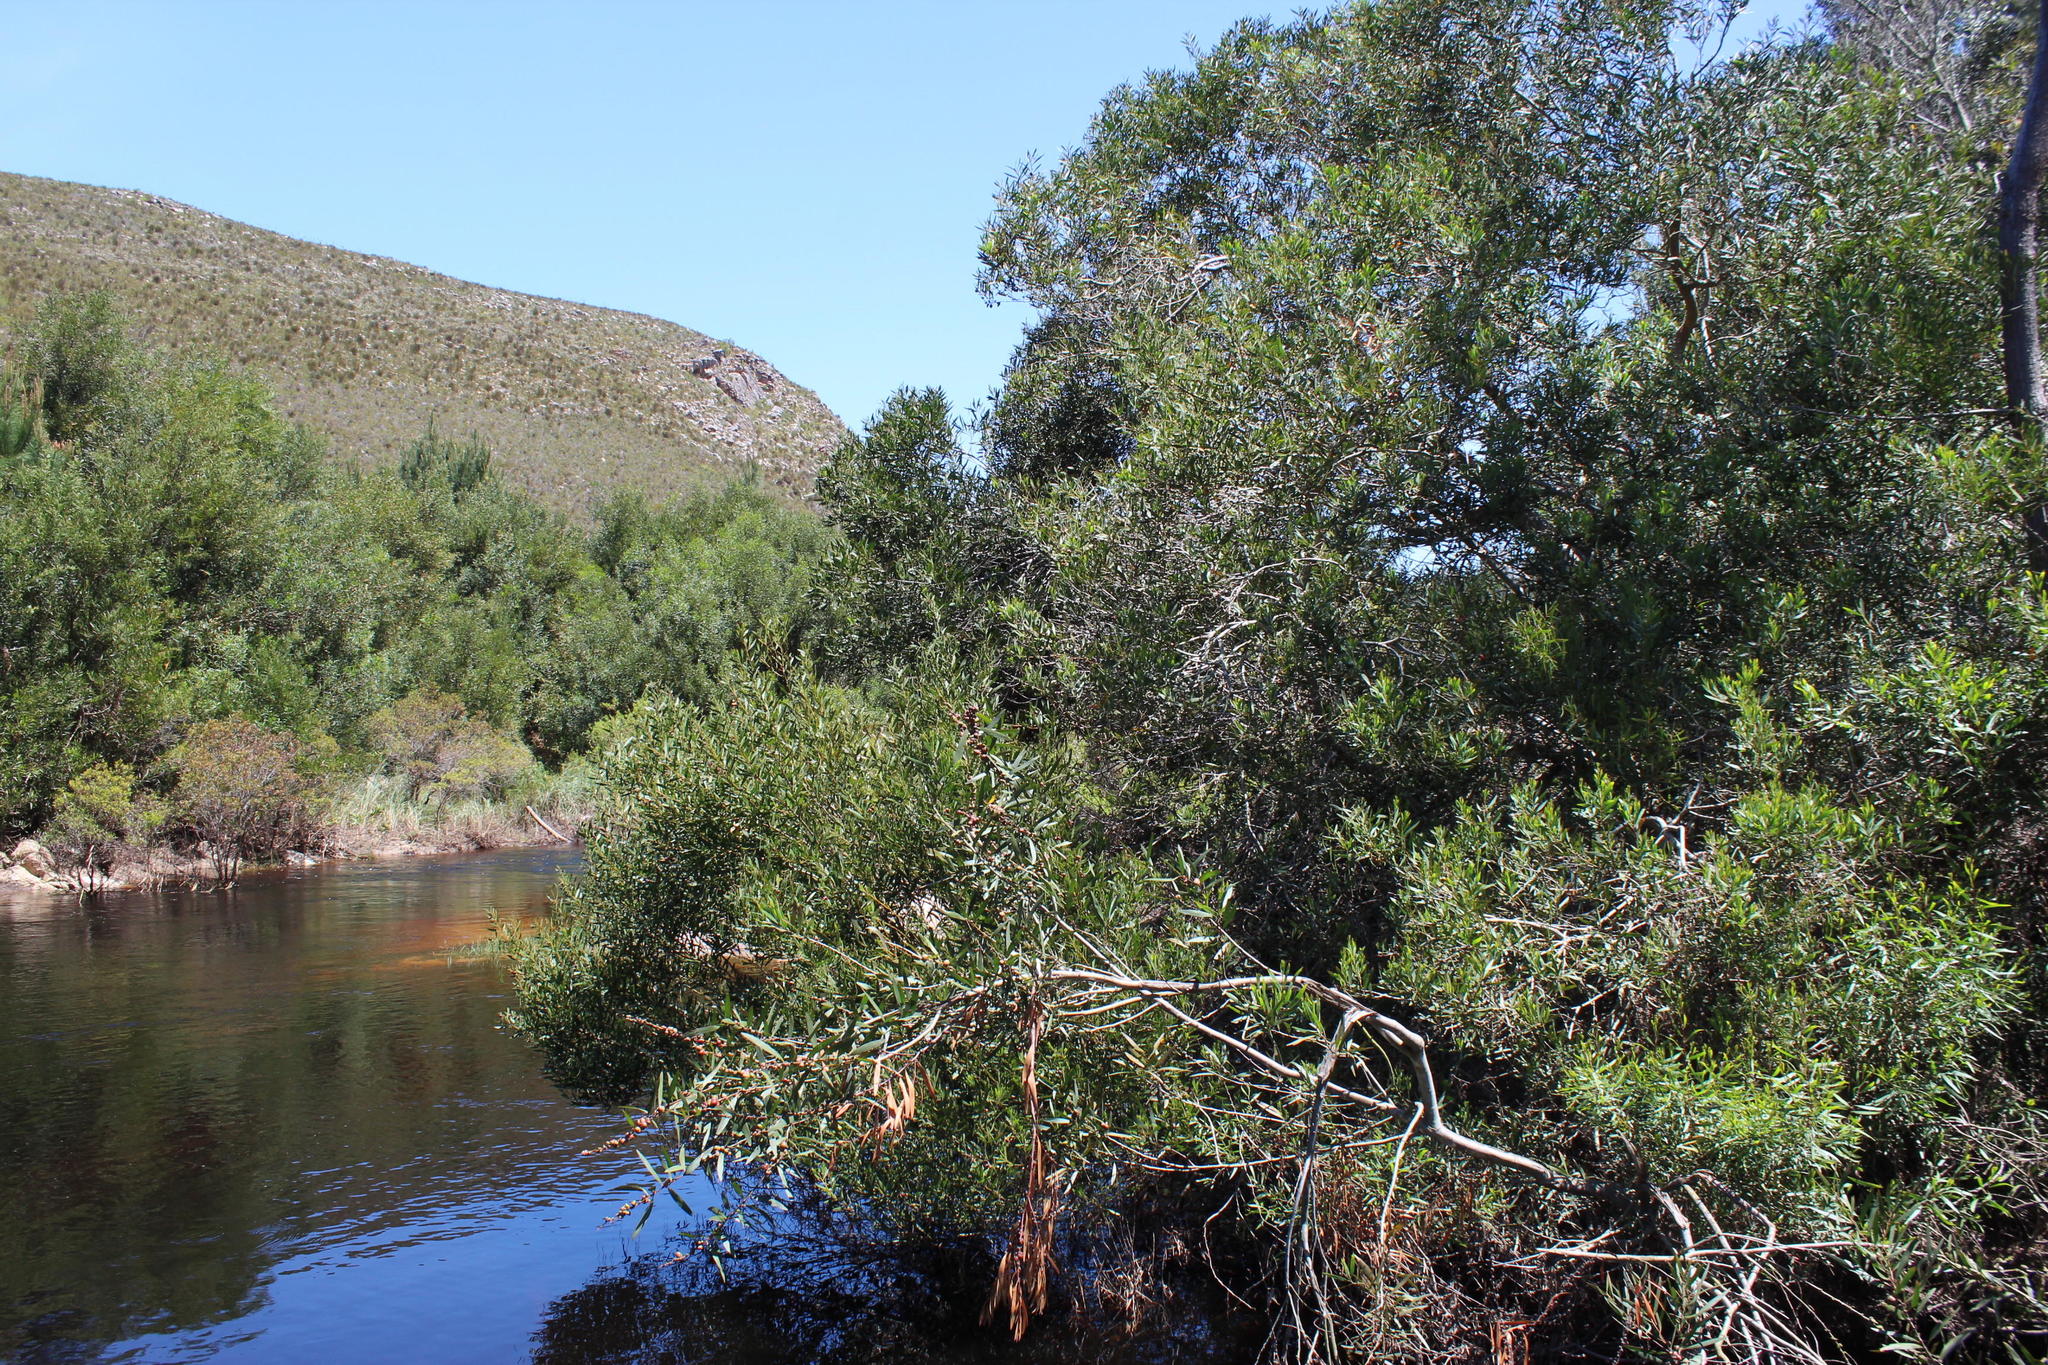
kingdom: Plantae
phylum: Tracheophyta
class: Magnoliopsida
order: Fabales
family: Fabaceae
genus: Acacia
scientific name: Acacia longifolia
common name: Sydney golden wattle
